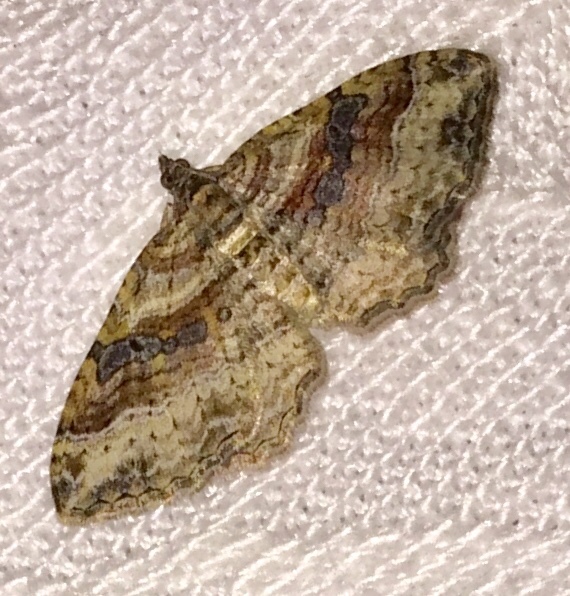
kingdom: Animalia
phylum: Arthropoda
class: Insecta
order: Lepidoptera
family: Geometridae
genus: Costaconvexa
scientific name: Costaconvexa centrostrigaria
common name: Bent-line carpet
